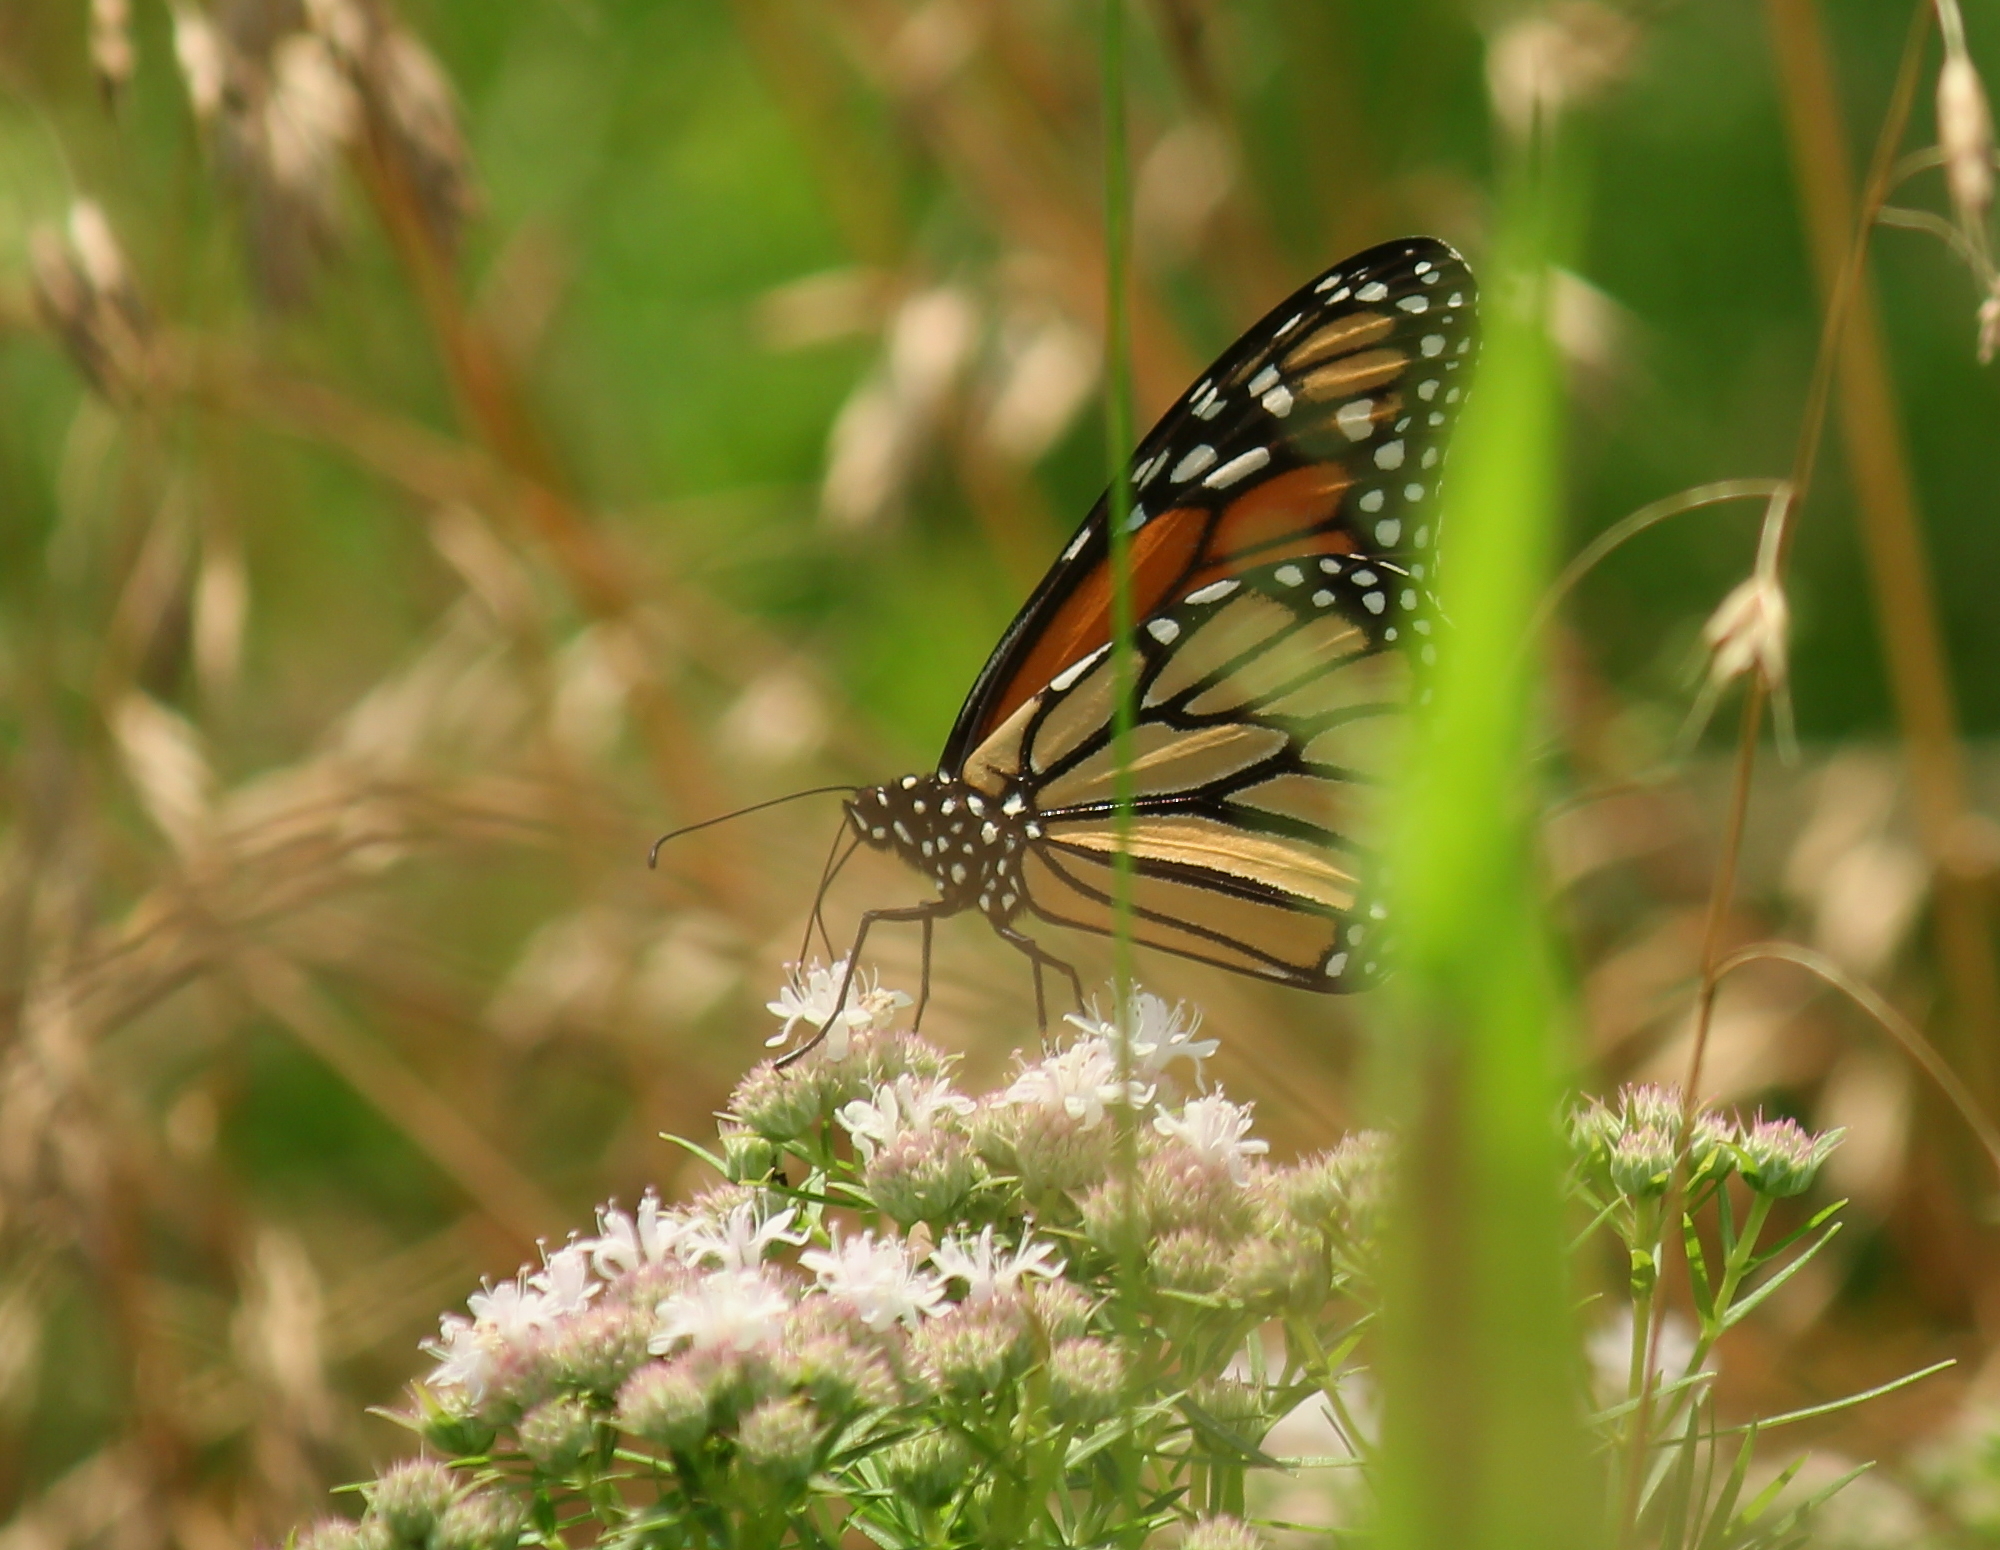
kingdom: Animalia
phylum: Arthropoda
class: Insecta
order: Lepidoptera
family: Nymphalidae
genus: Danaus
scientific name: Danaus plexippus
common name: Monarch
